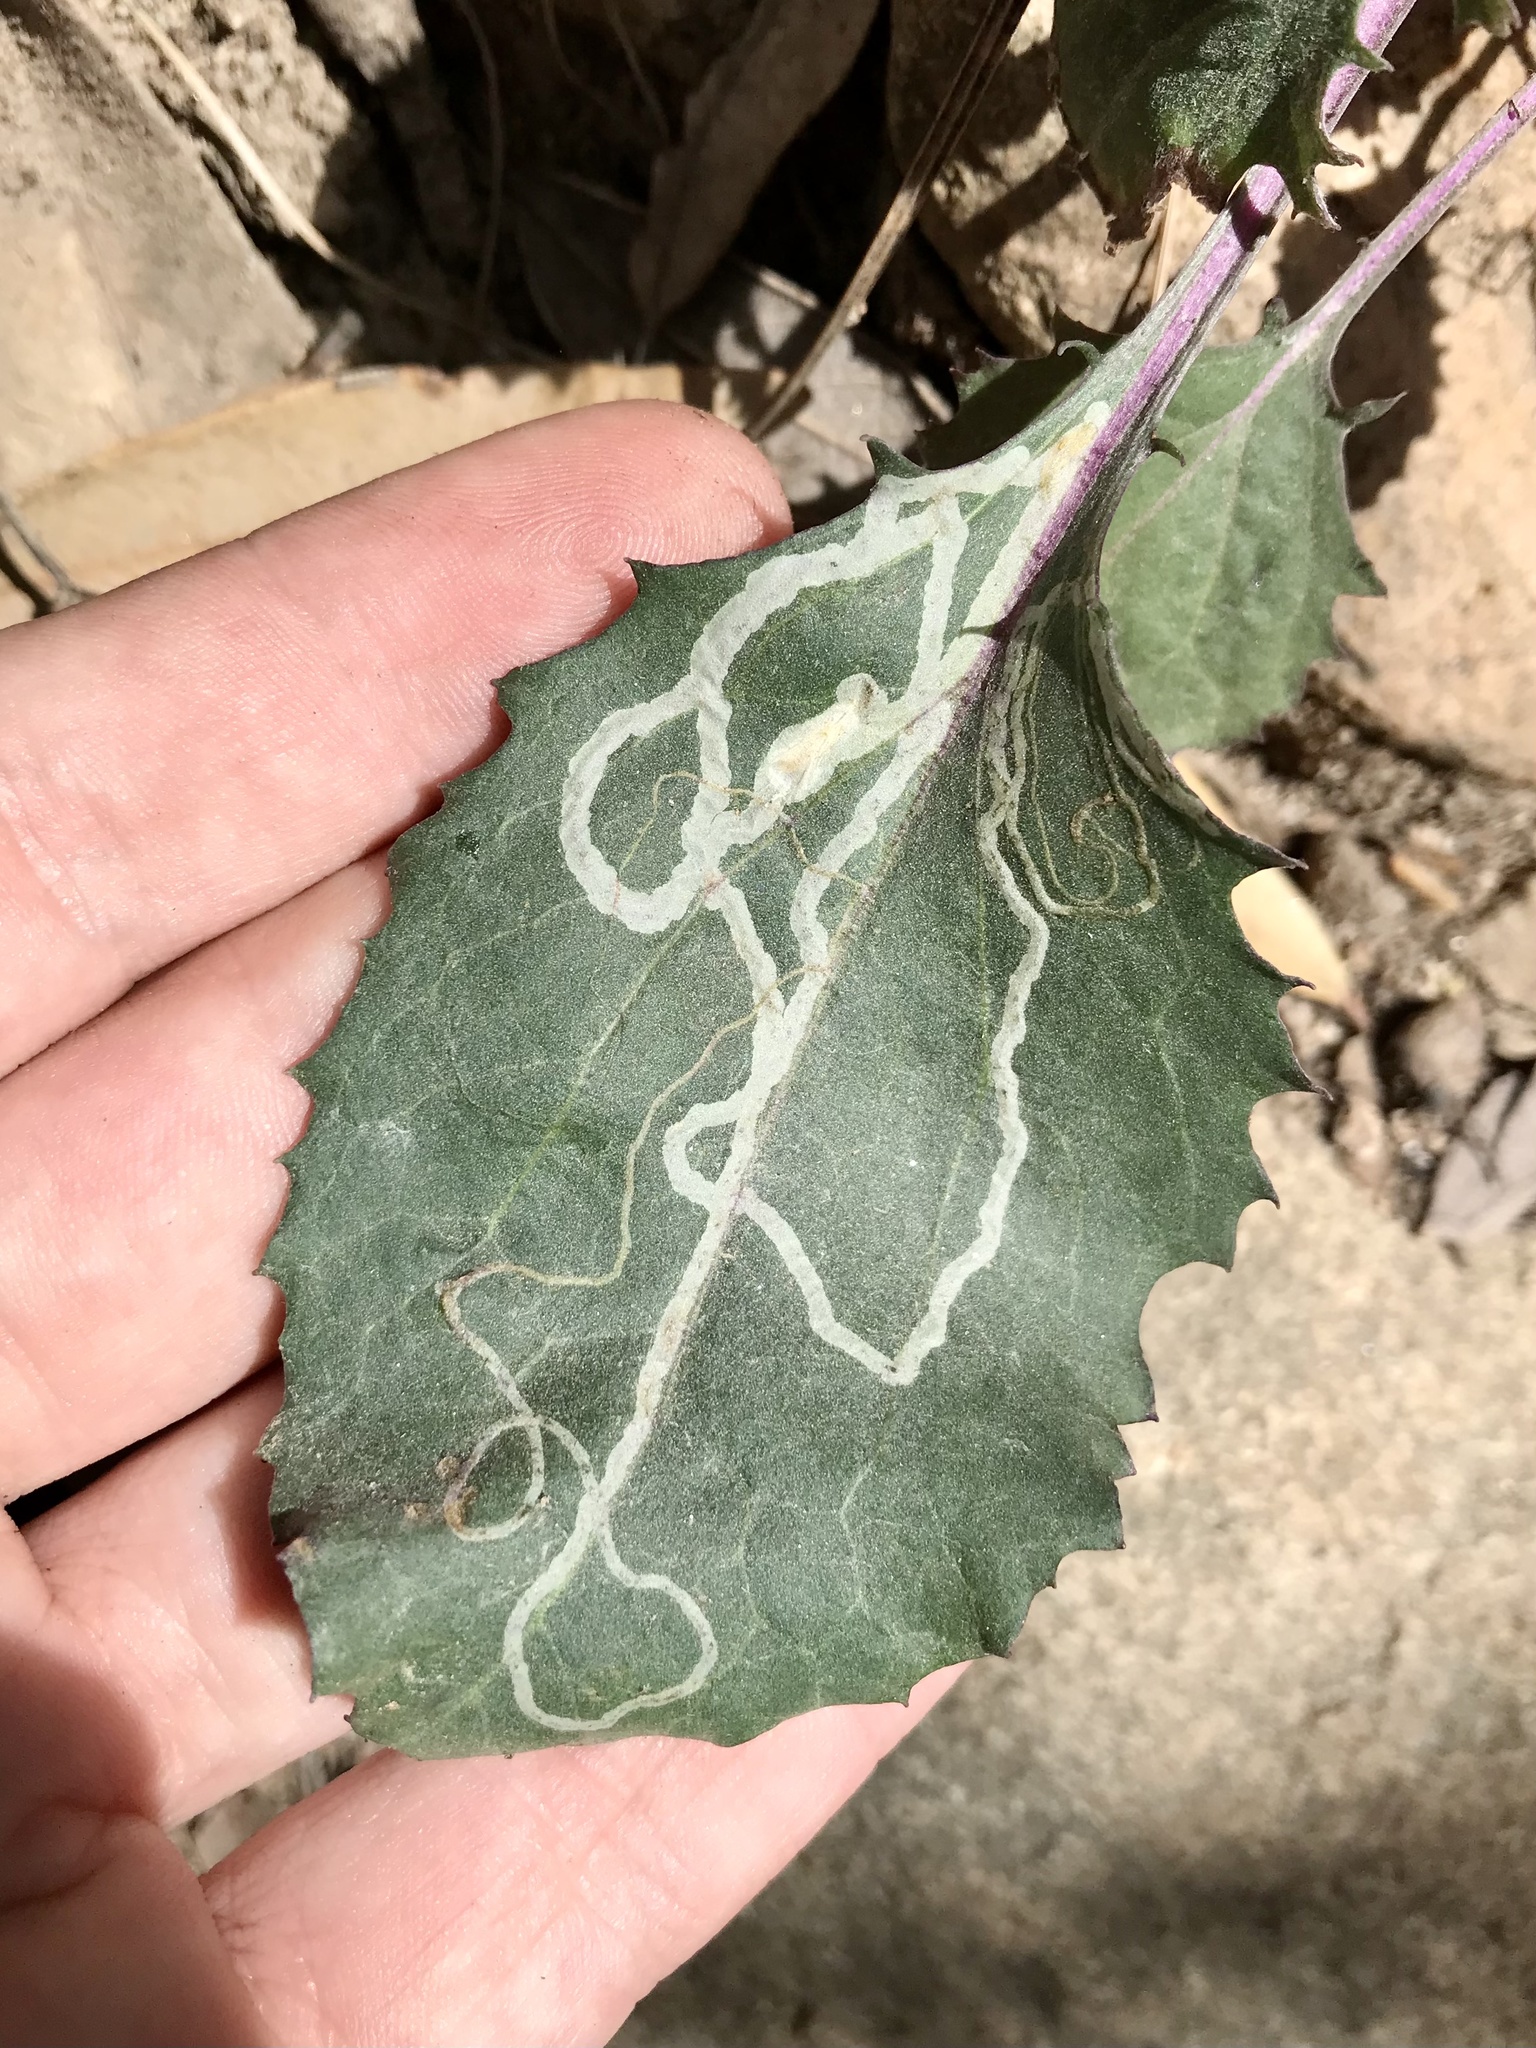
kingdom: Animalia
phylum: Arthropoda
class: Insecta
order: Lepidoptera
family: Gracillariidae
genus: Phyllocnistis
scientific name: Phyllocnistis finitima
